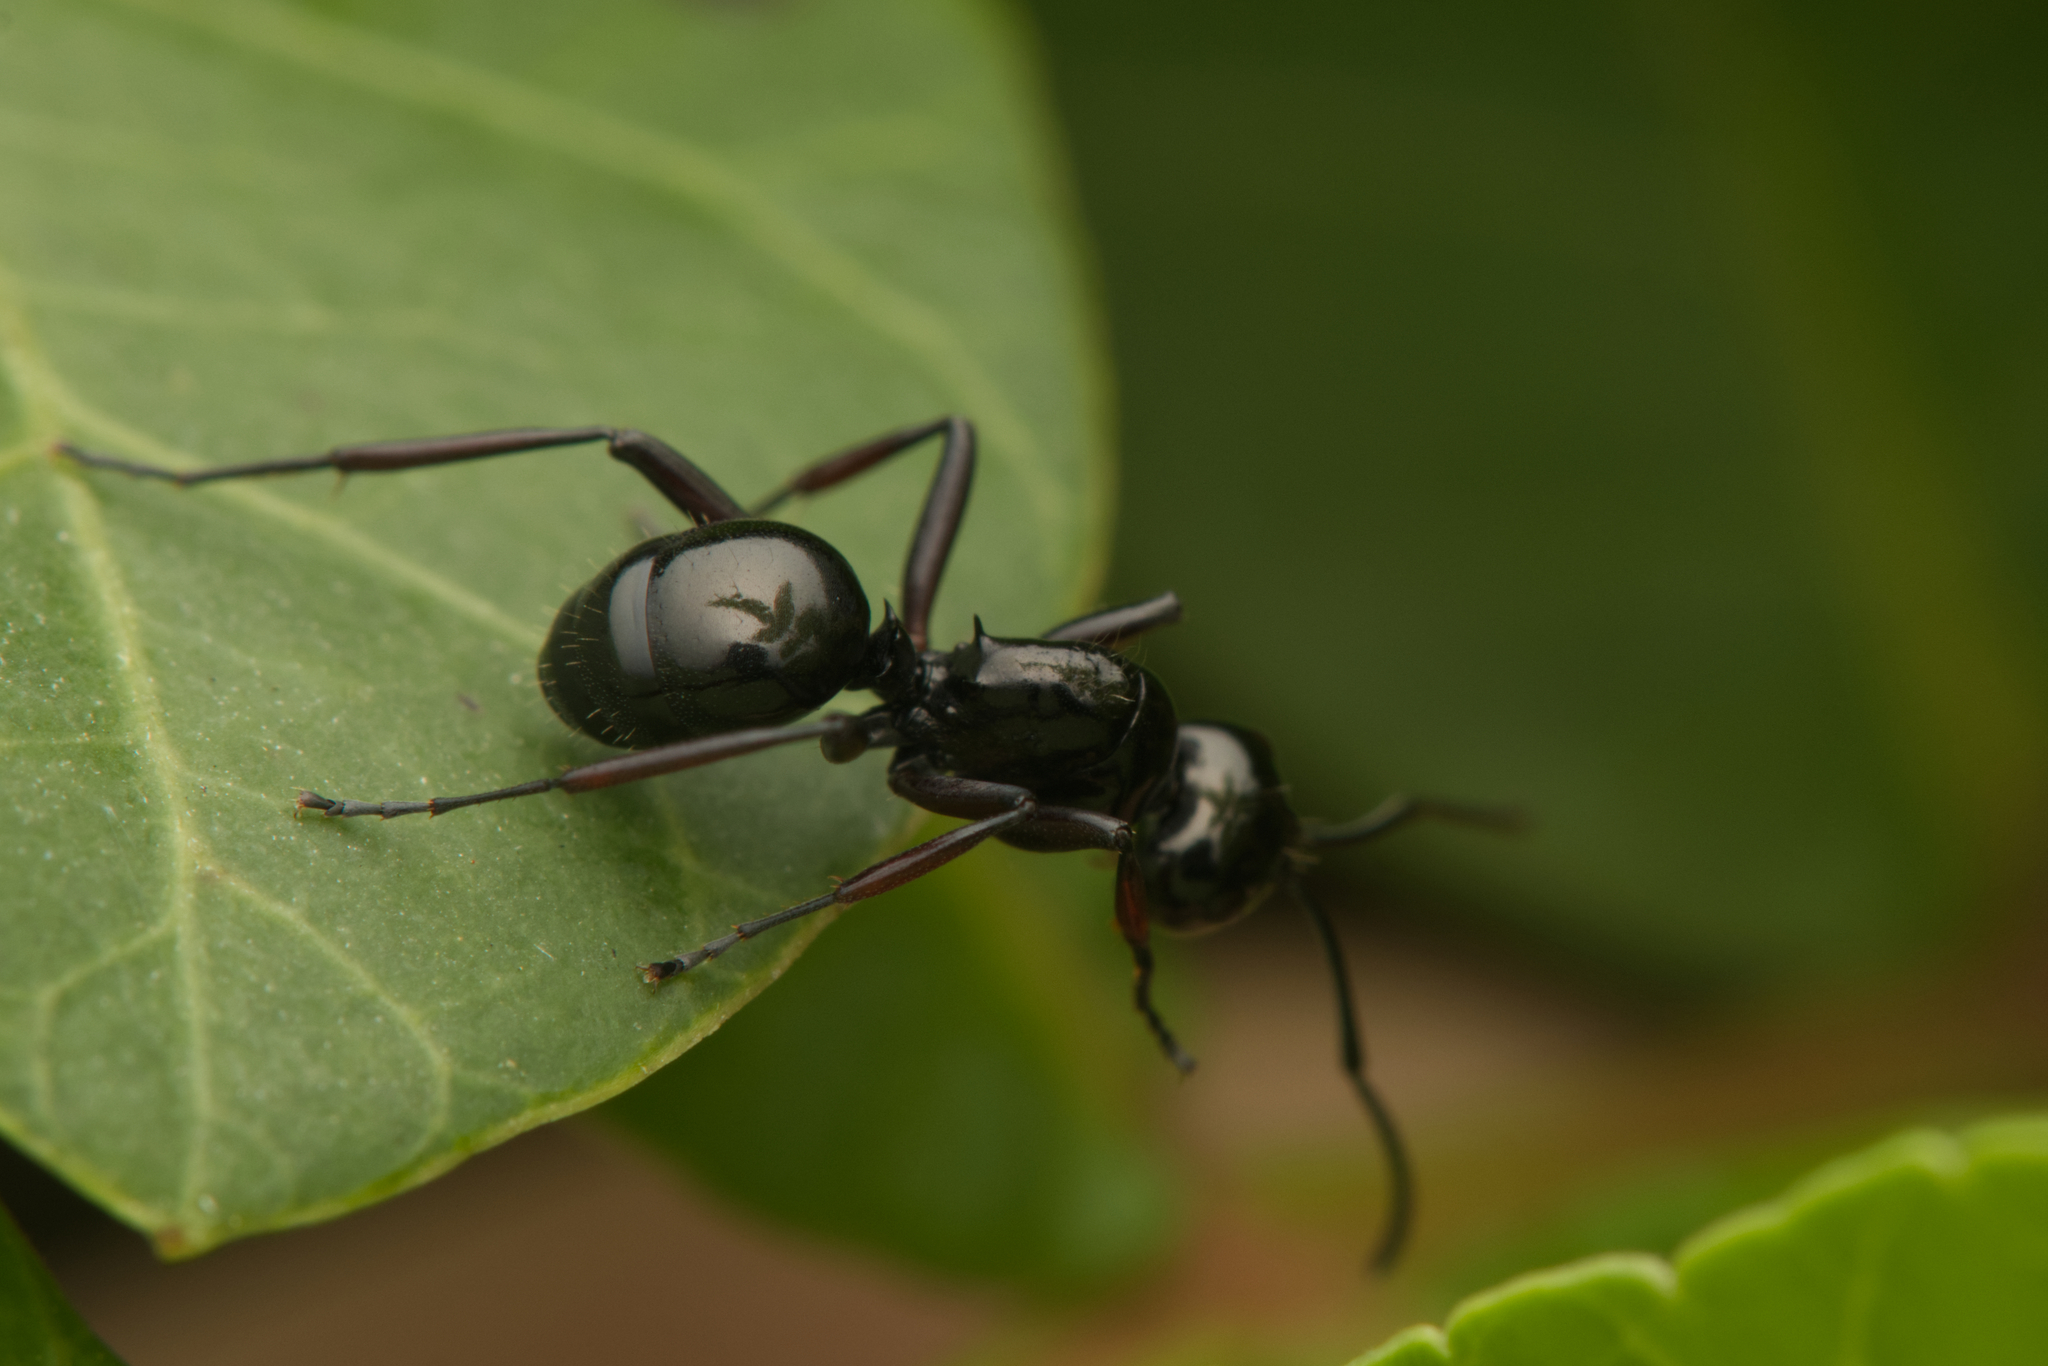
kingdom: Animalia
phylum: Arthropoda
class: Insecta
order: Hymenoptera
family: Formicidae
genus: Polyrhachis
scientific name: Polyrhachis australis
